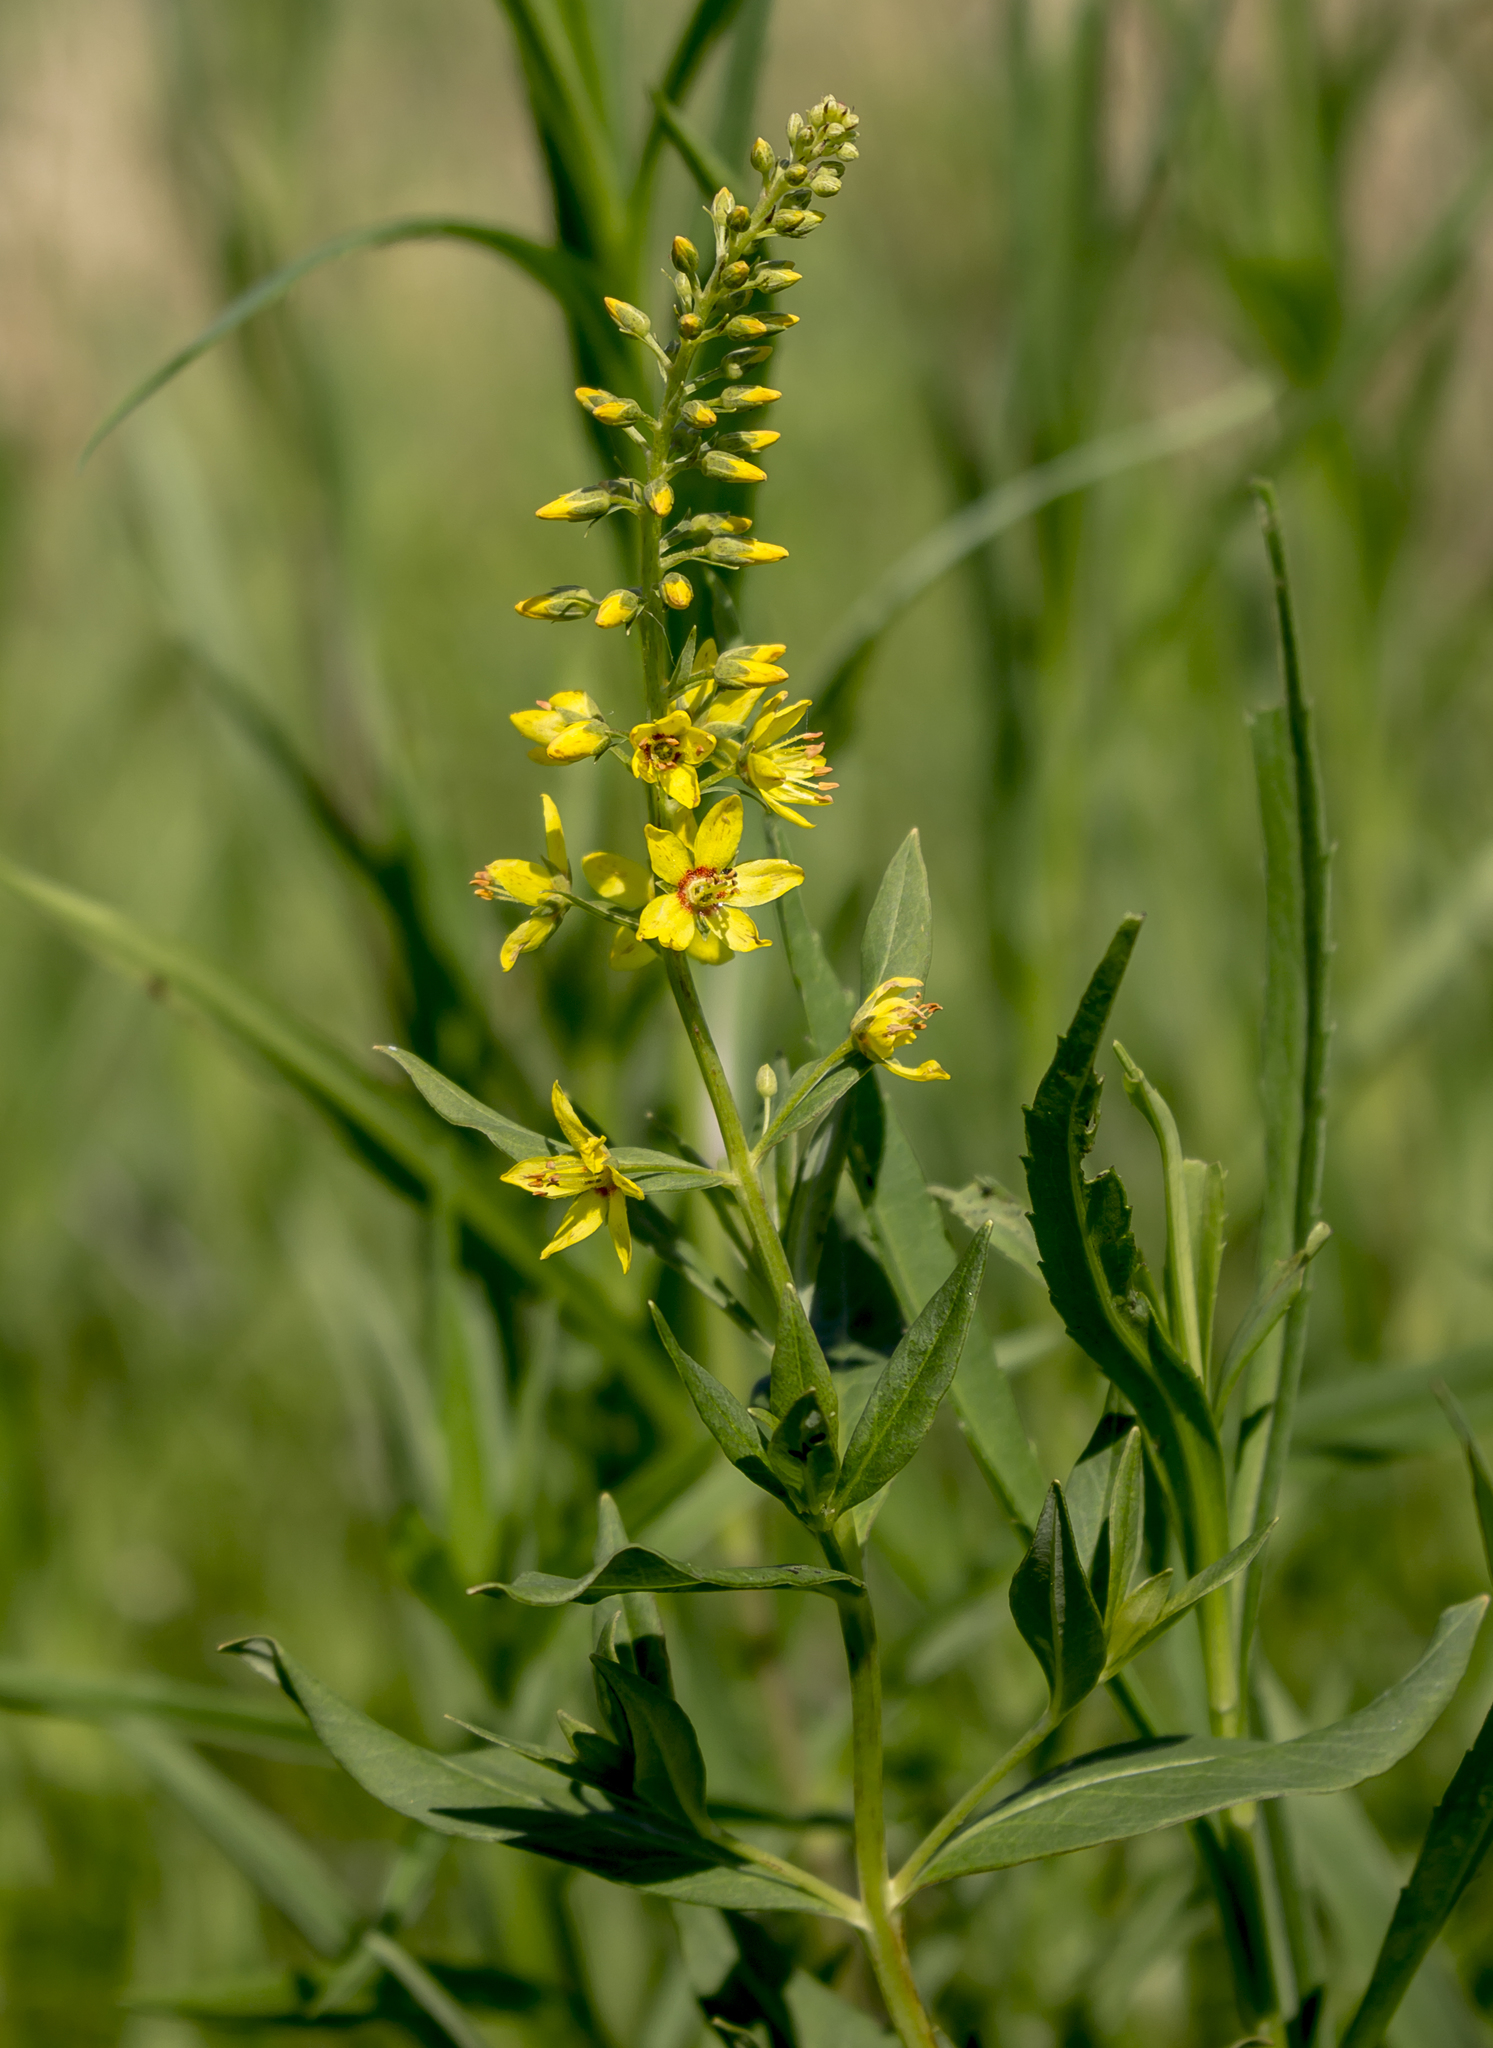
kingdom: Plantae
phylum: Tracheophyta
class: Magnoliopsida
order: Ericales
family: Primulaceae
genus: Lysimachia
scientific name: Lysimachia terrestris
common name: Lake loosestrife
